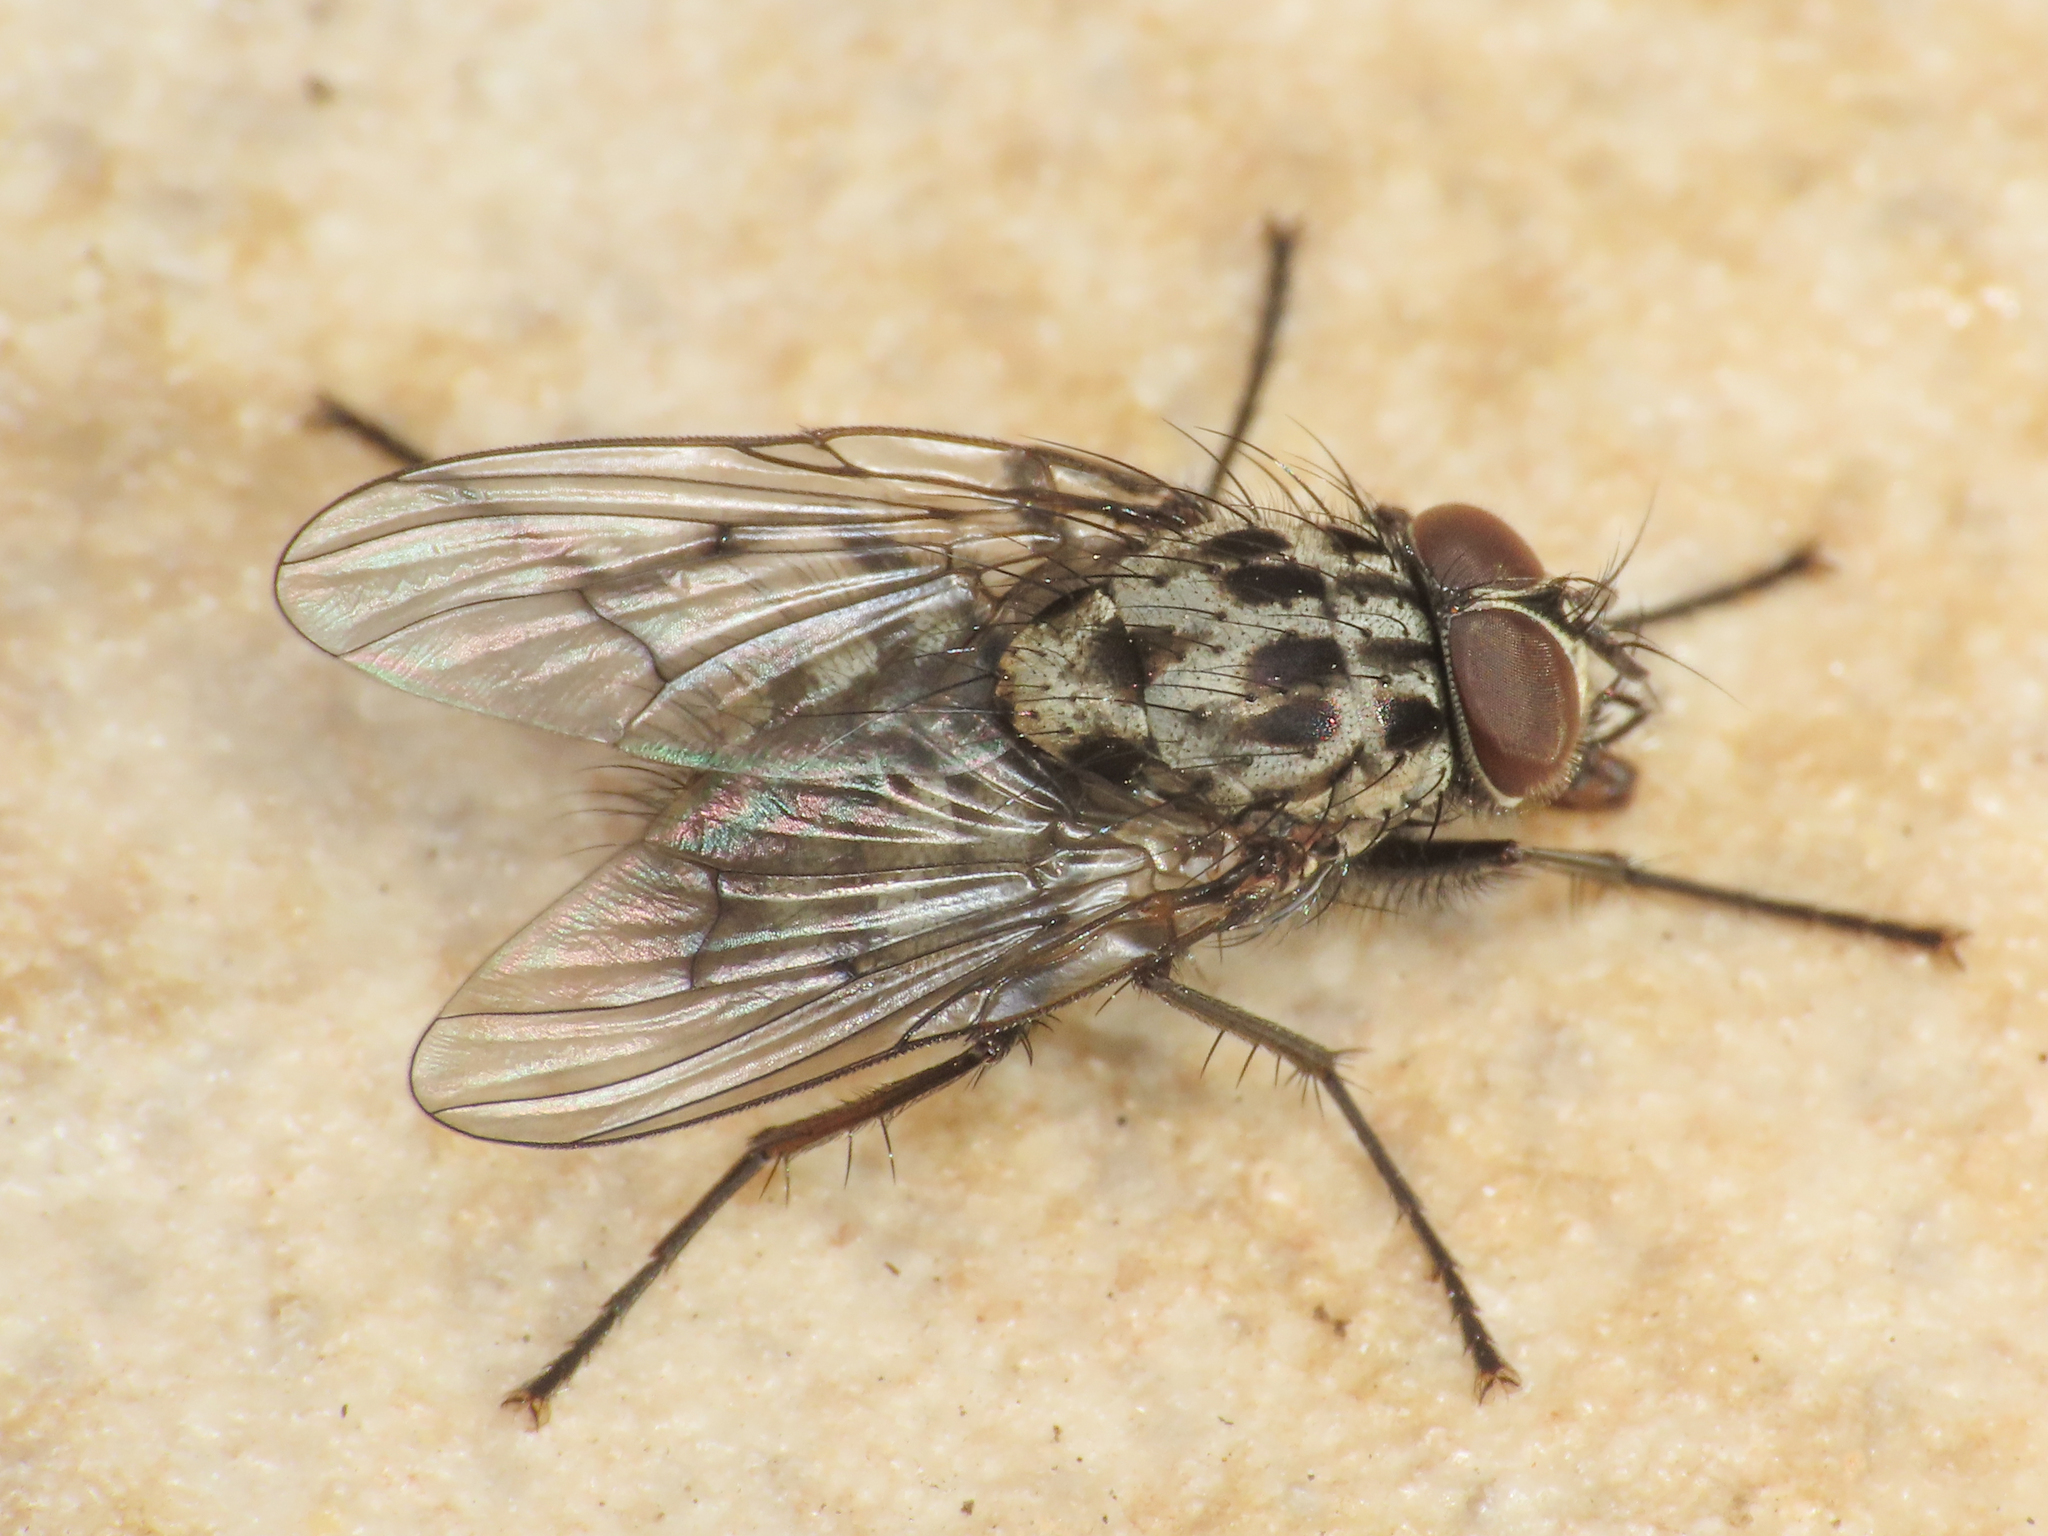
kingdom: Animalia
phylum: Arthropoda
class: Insecta
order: Diptera
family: Muscidae
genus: Phaonia
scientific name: Phaonia trimaculata
